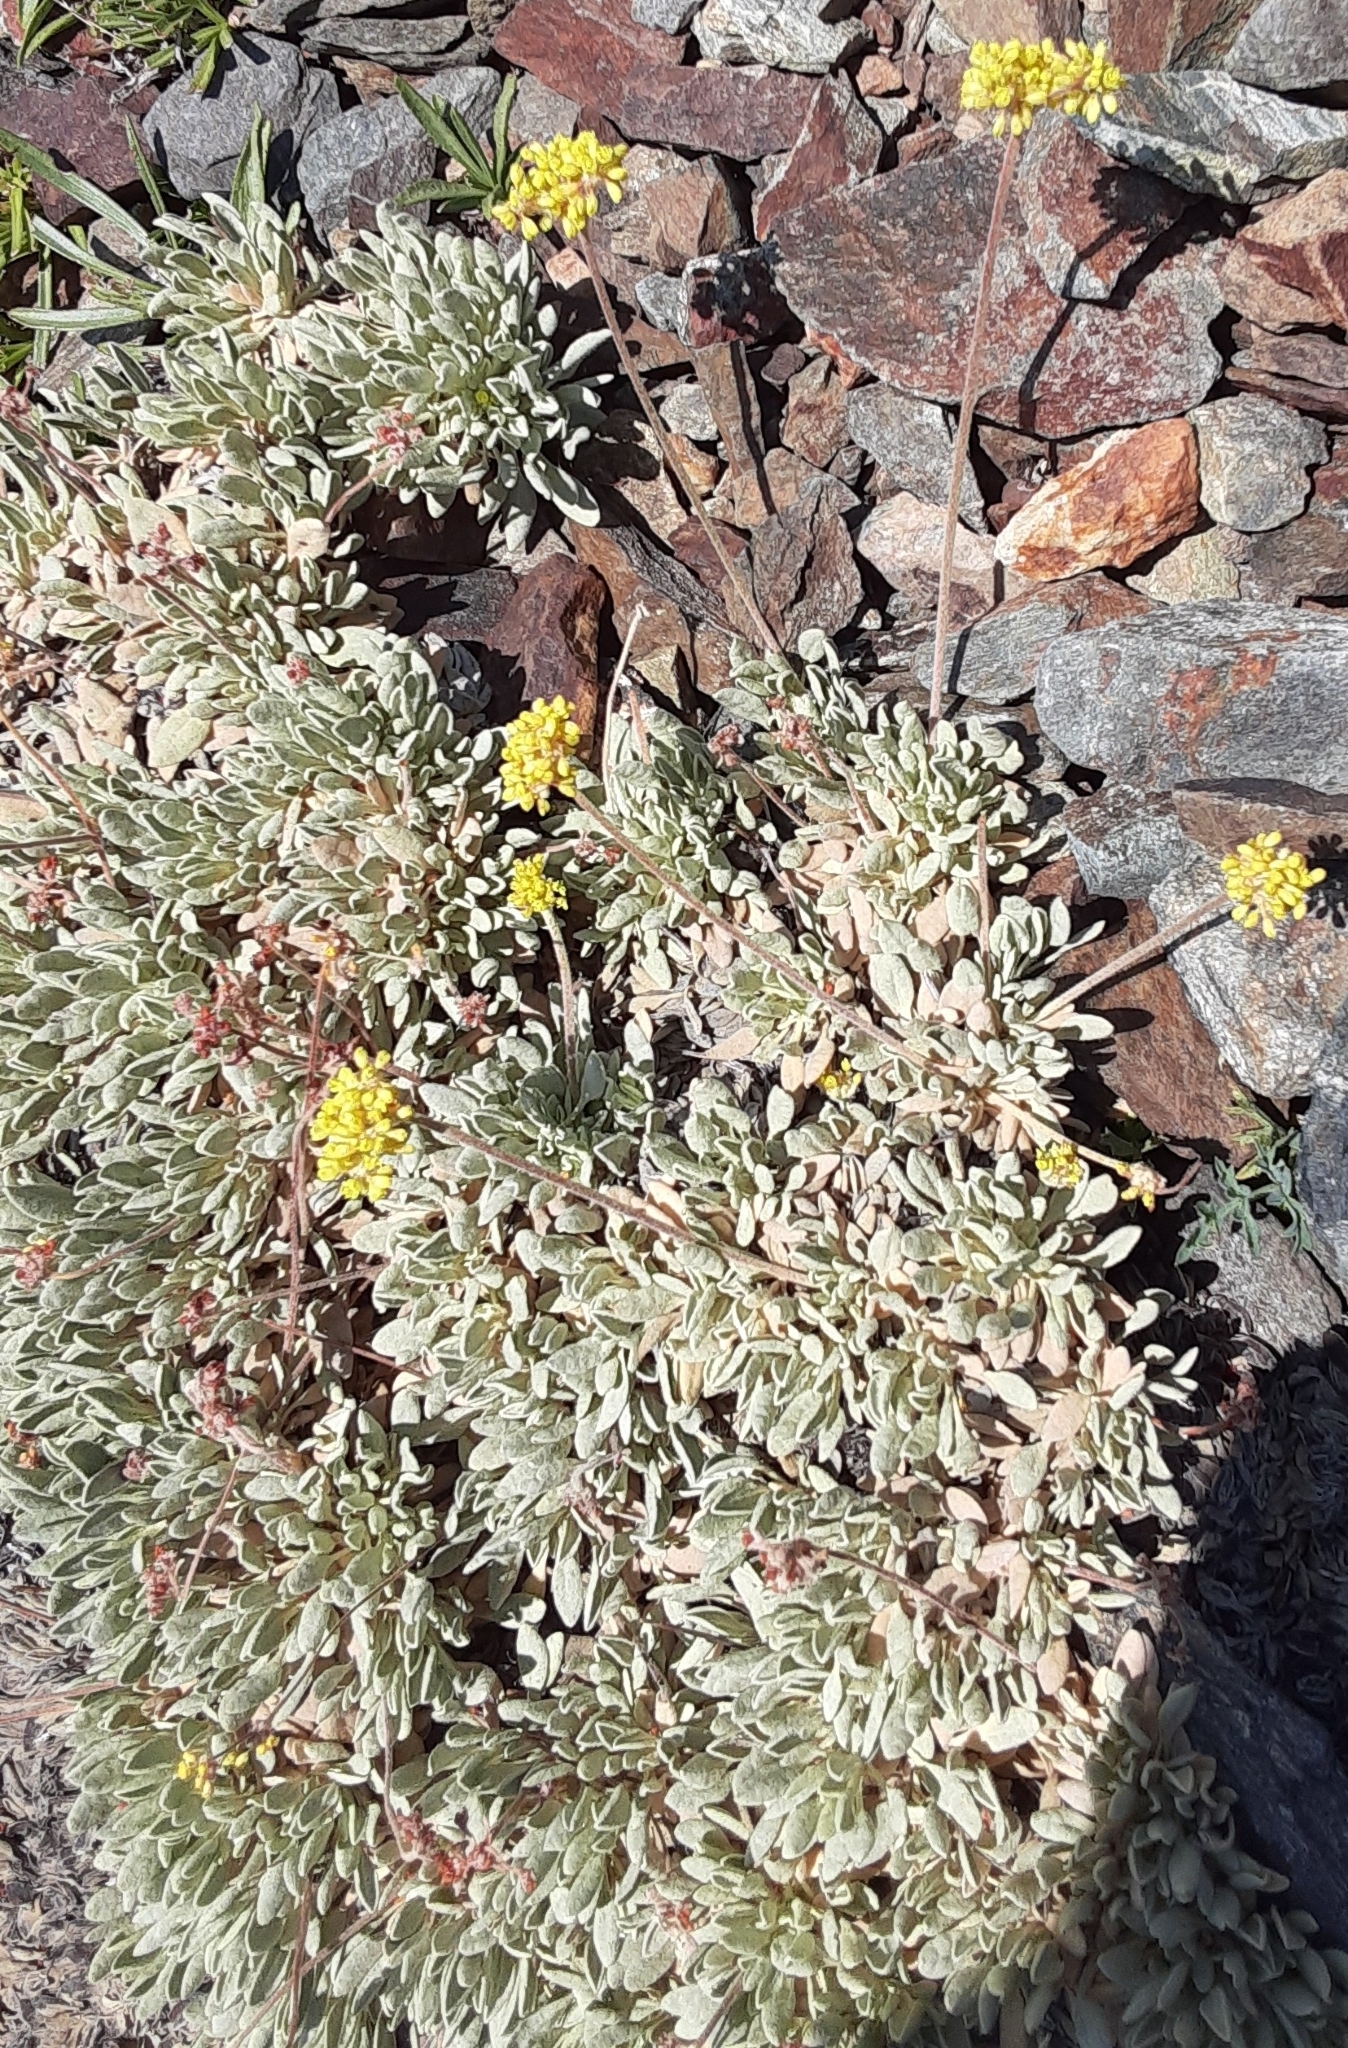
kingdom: Plantae
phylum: Tracheophyta
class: Magnoliopsida
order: Caryophyllales
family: Polygonaceae
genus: Eriogonum
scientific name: Eriogonum incanum
